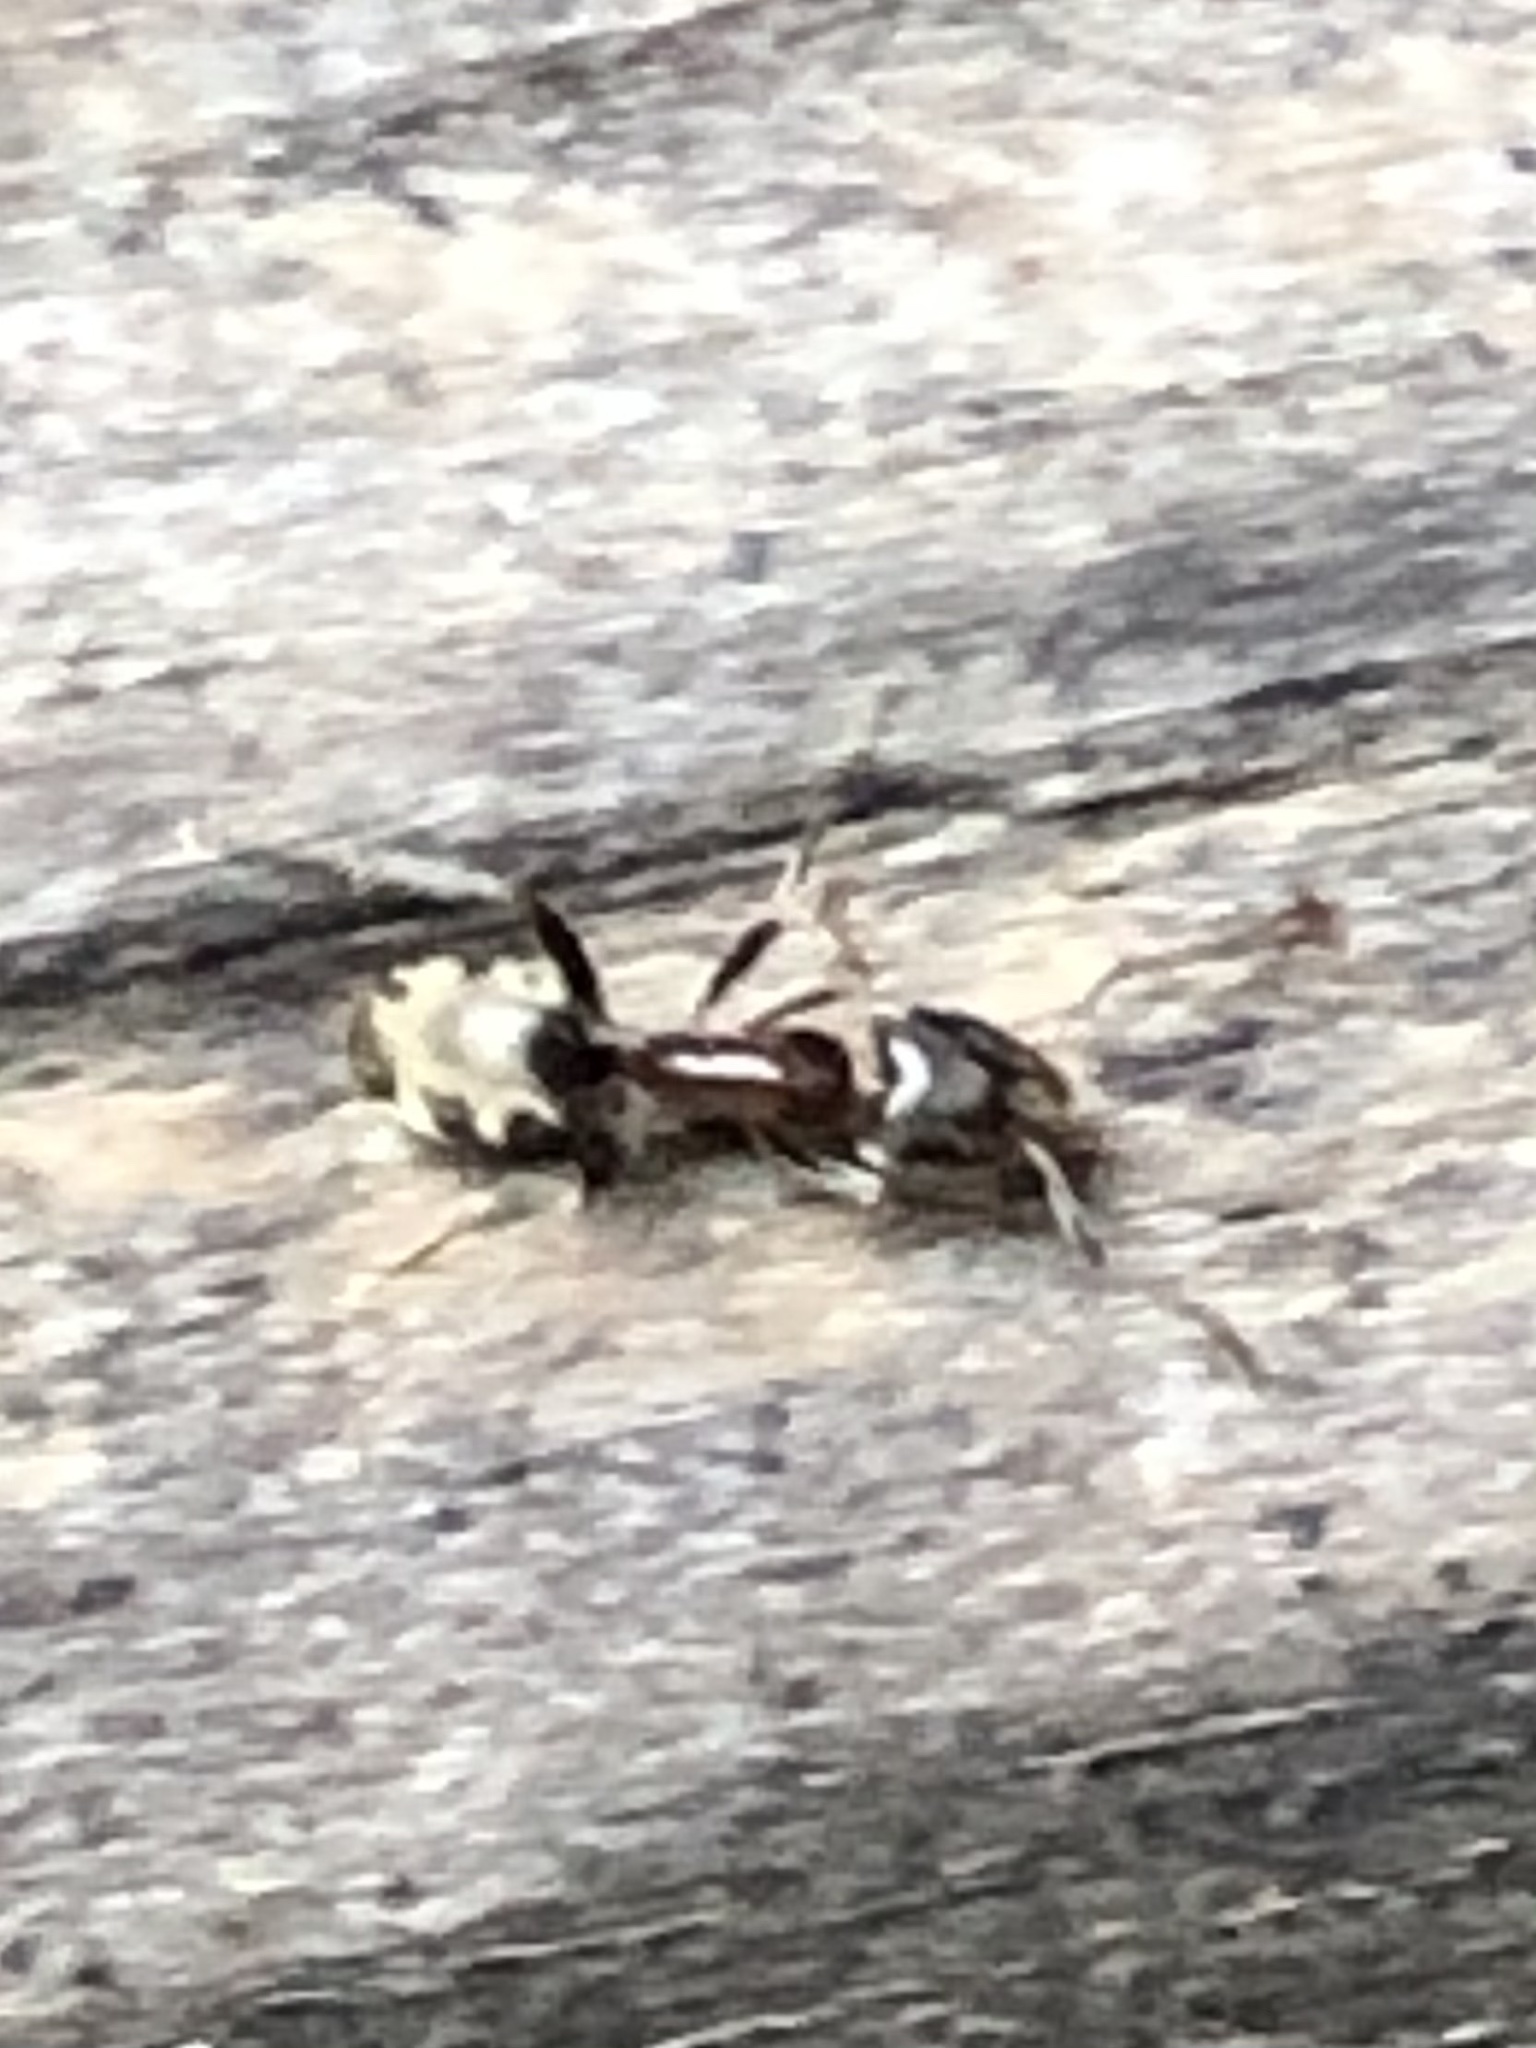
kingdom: Animalia
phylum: Arthropoda
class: Insecta
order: Hymenoptera
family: Formicidae
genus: Liometopum
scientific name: Liometopum occidentale
